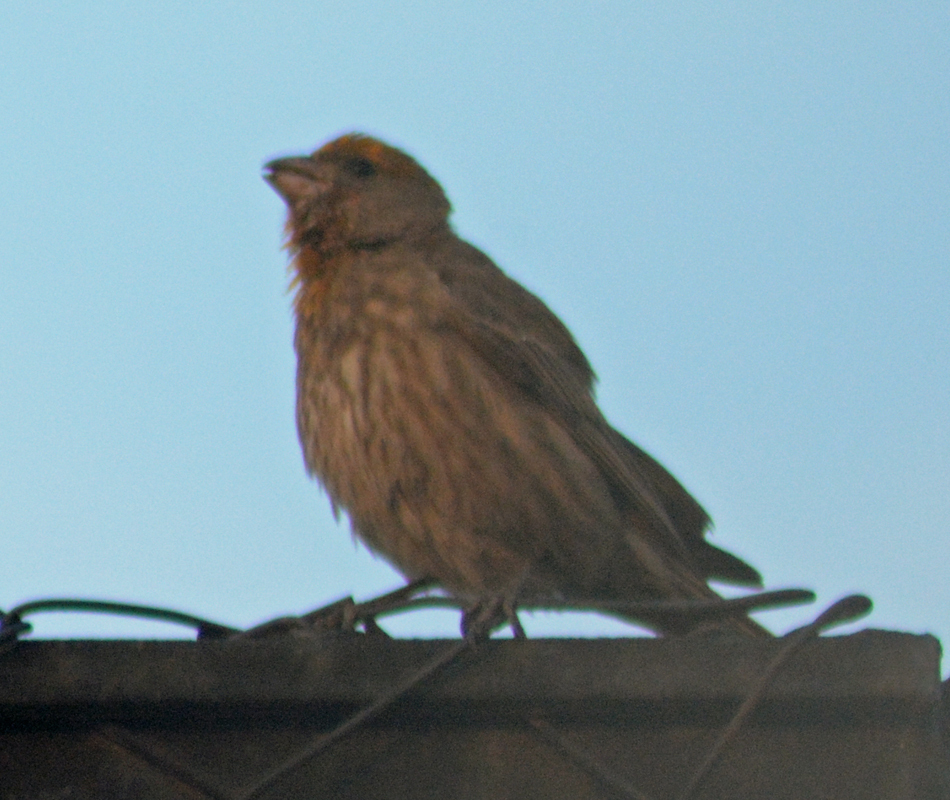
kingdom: Animalia
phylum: Chordata
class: Aves
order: Passeriformes
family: Fringillidae
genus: Haemorhous
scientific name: Haemorhous mexicanus
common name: House finch
